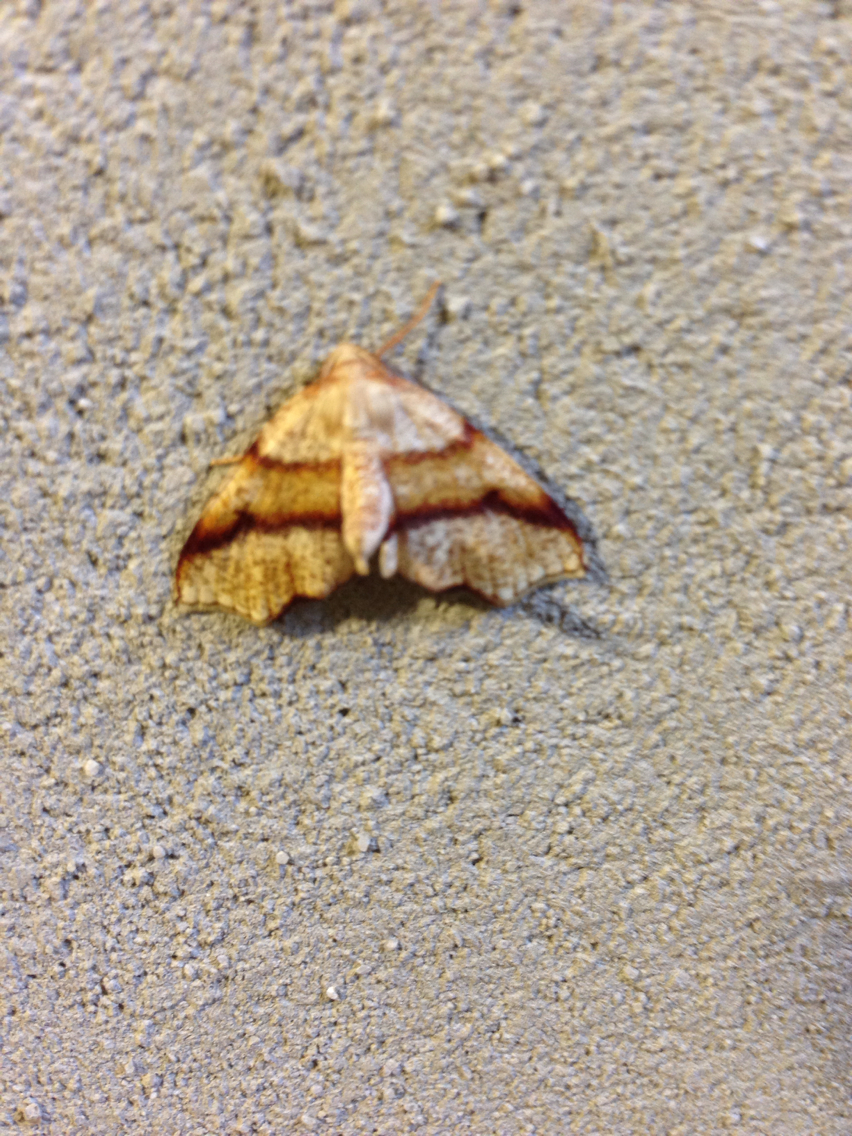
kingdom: Animalia
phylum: Arthropoda
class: Insecta
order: Lepidoptera
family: Geometridae
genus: Plagodis
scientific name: Plagodis alcoolaria
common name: Hollow-spotted plagodis
